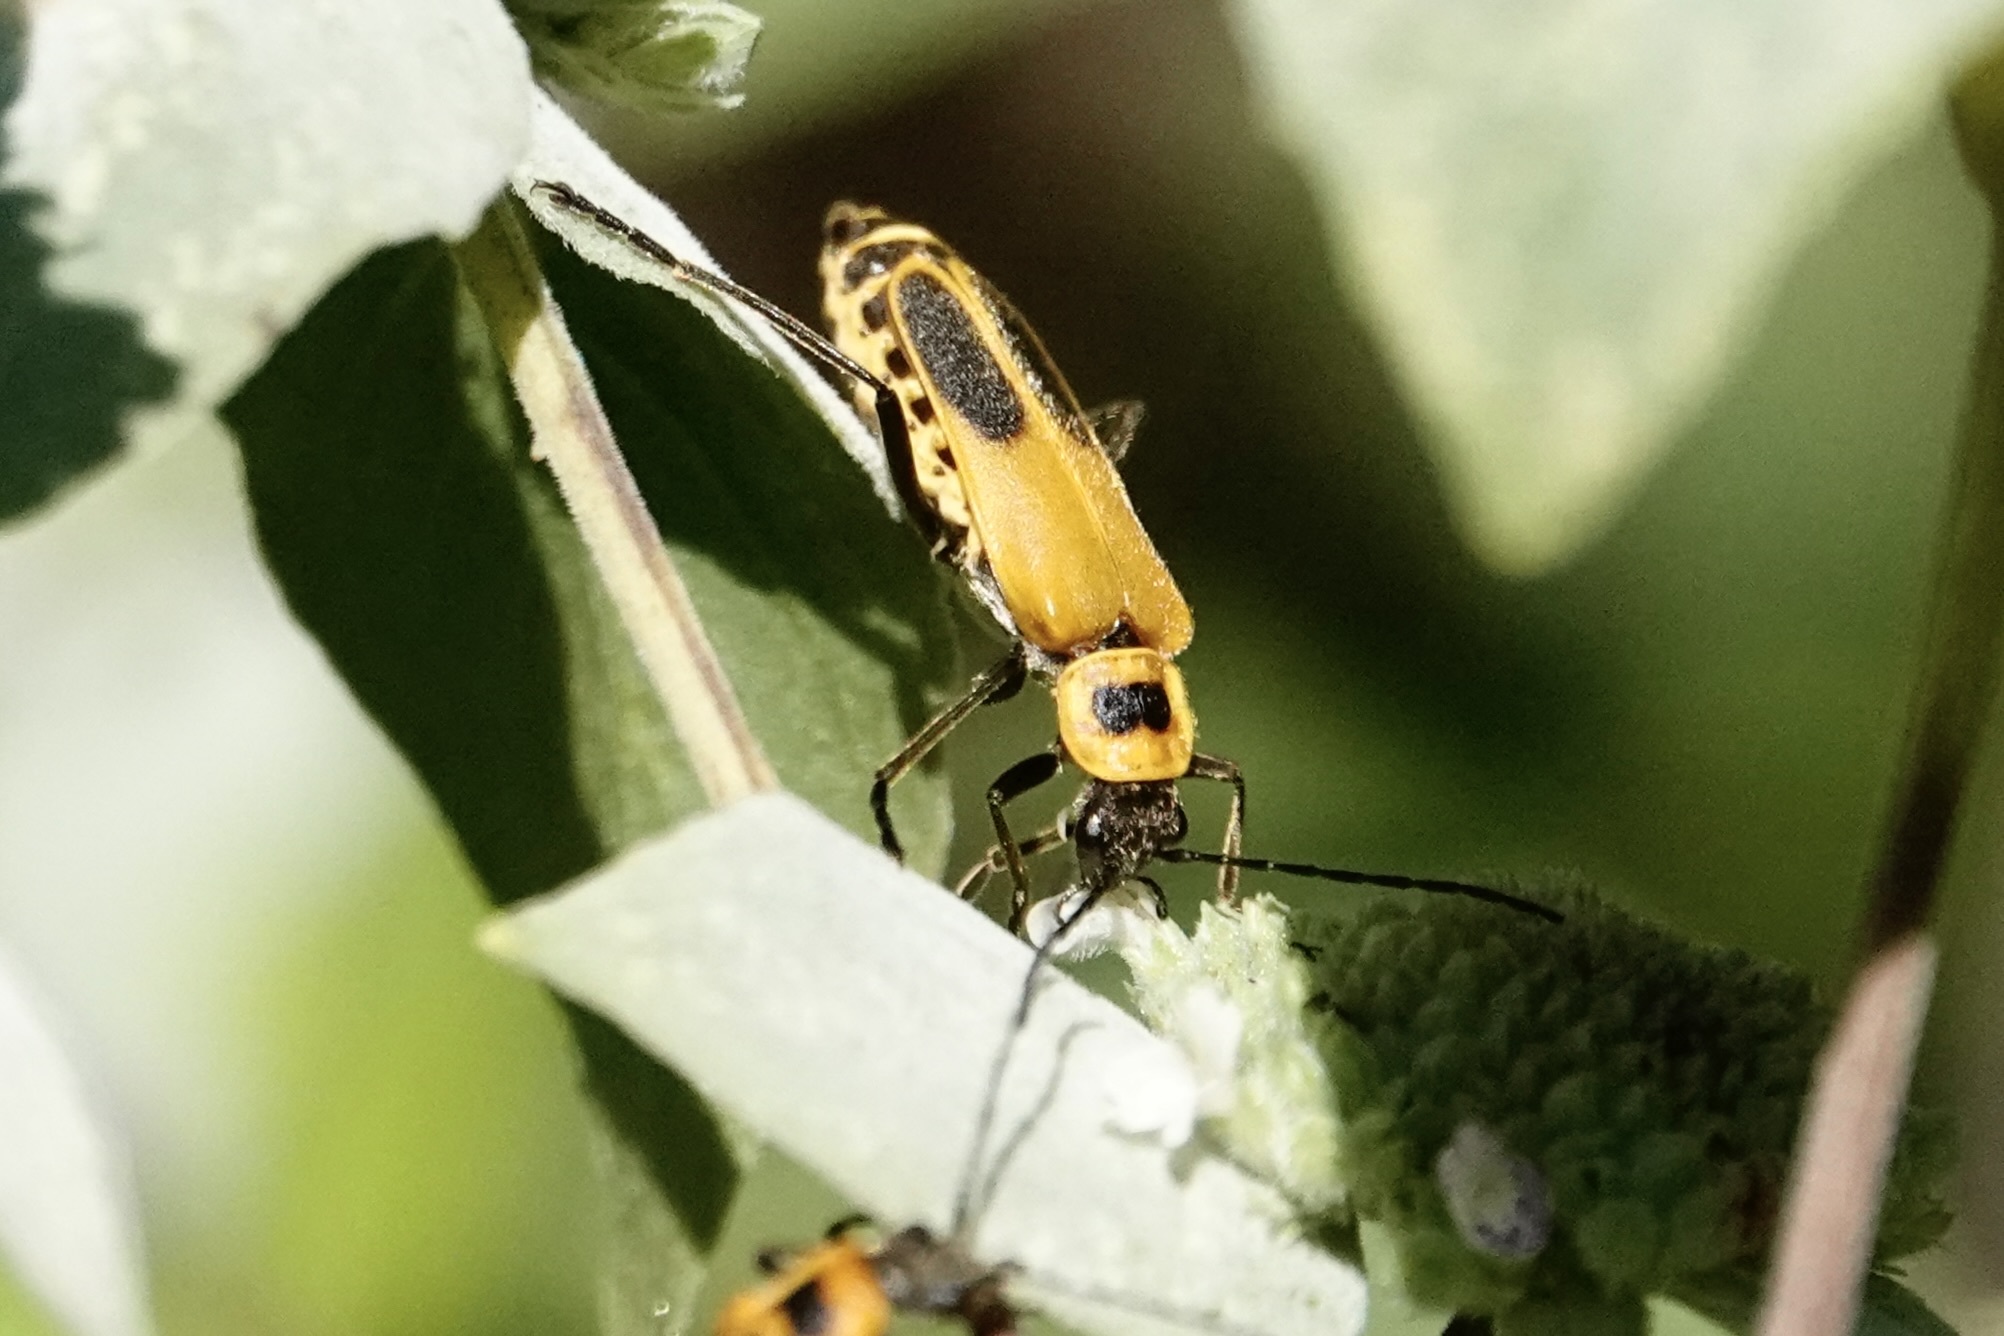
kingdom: Animalia
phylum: Arthropoda
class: Insecta
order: Coleoptera
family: Cantharidae
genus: Chauliognathus
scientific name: Chauliognathus pensylvanicus
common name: Goldenrod soldier beetle
